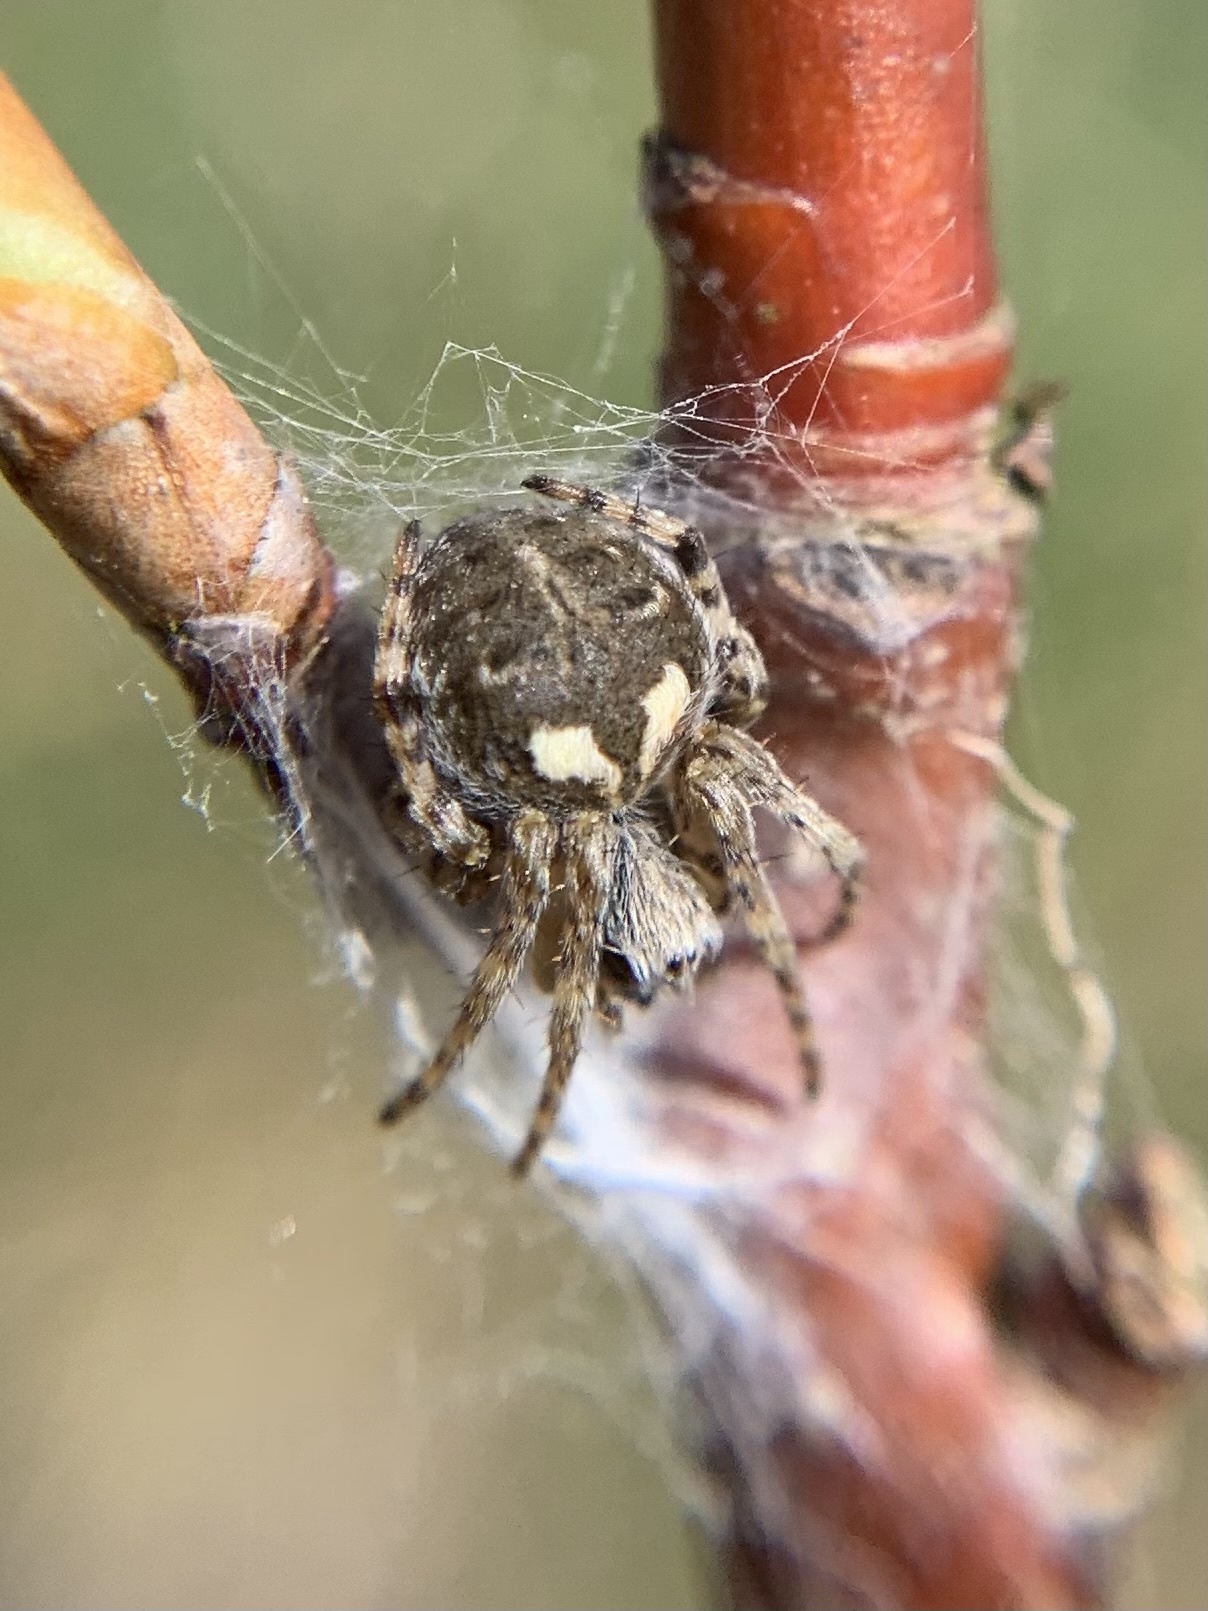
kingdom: Animalia
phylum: Arthropoda
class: Arachnida
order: Araneae
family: Araneidae
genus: Agalenatea
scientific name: Agalenatea redii
